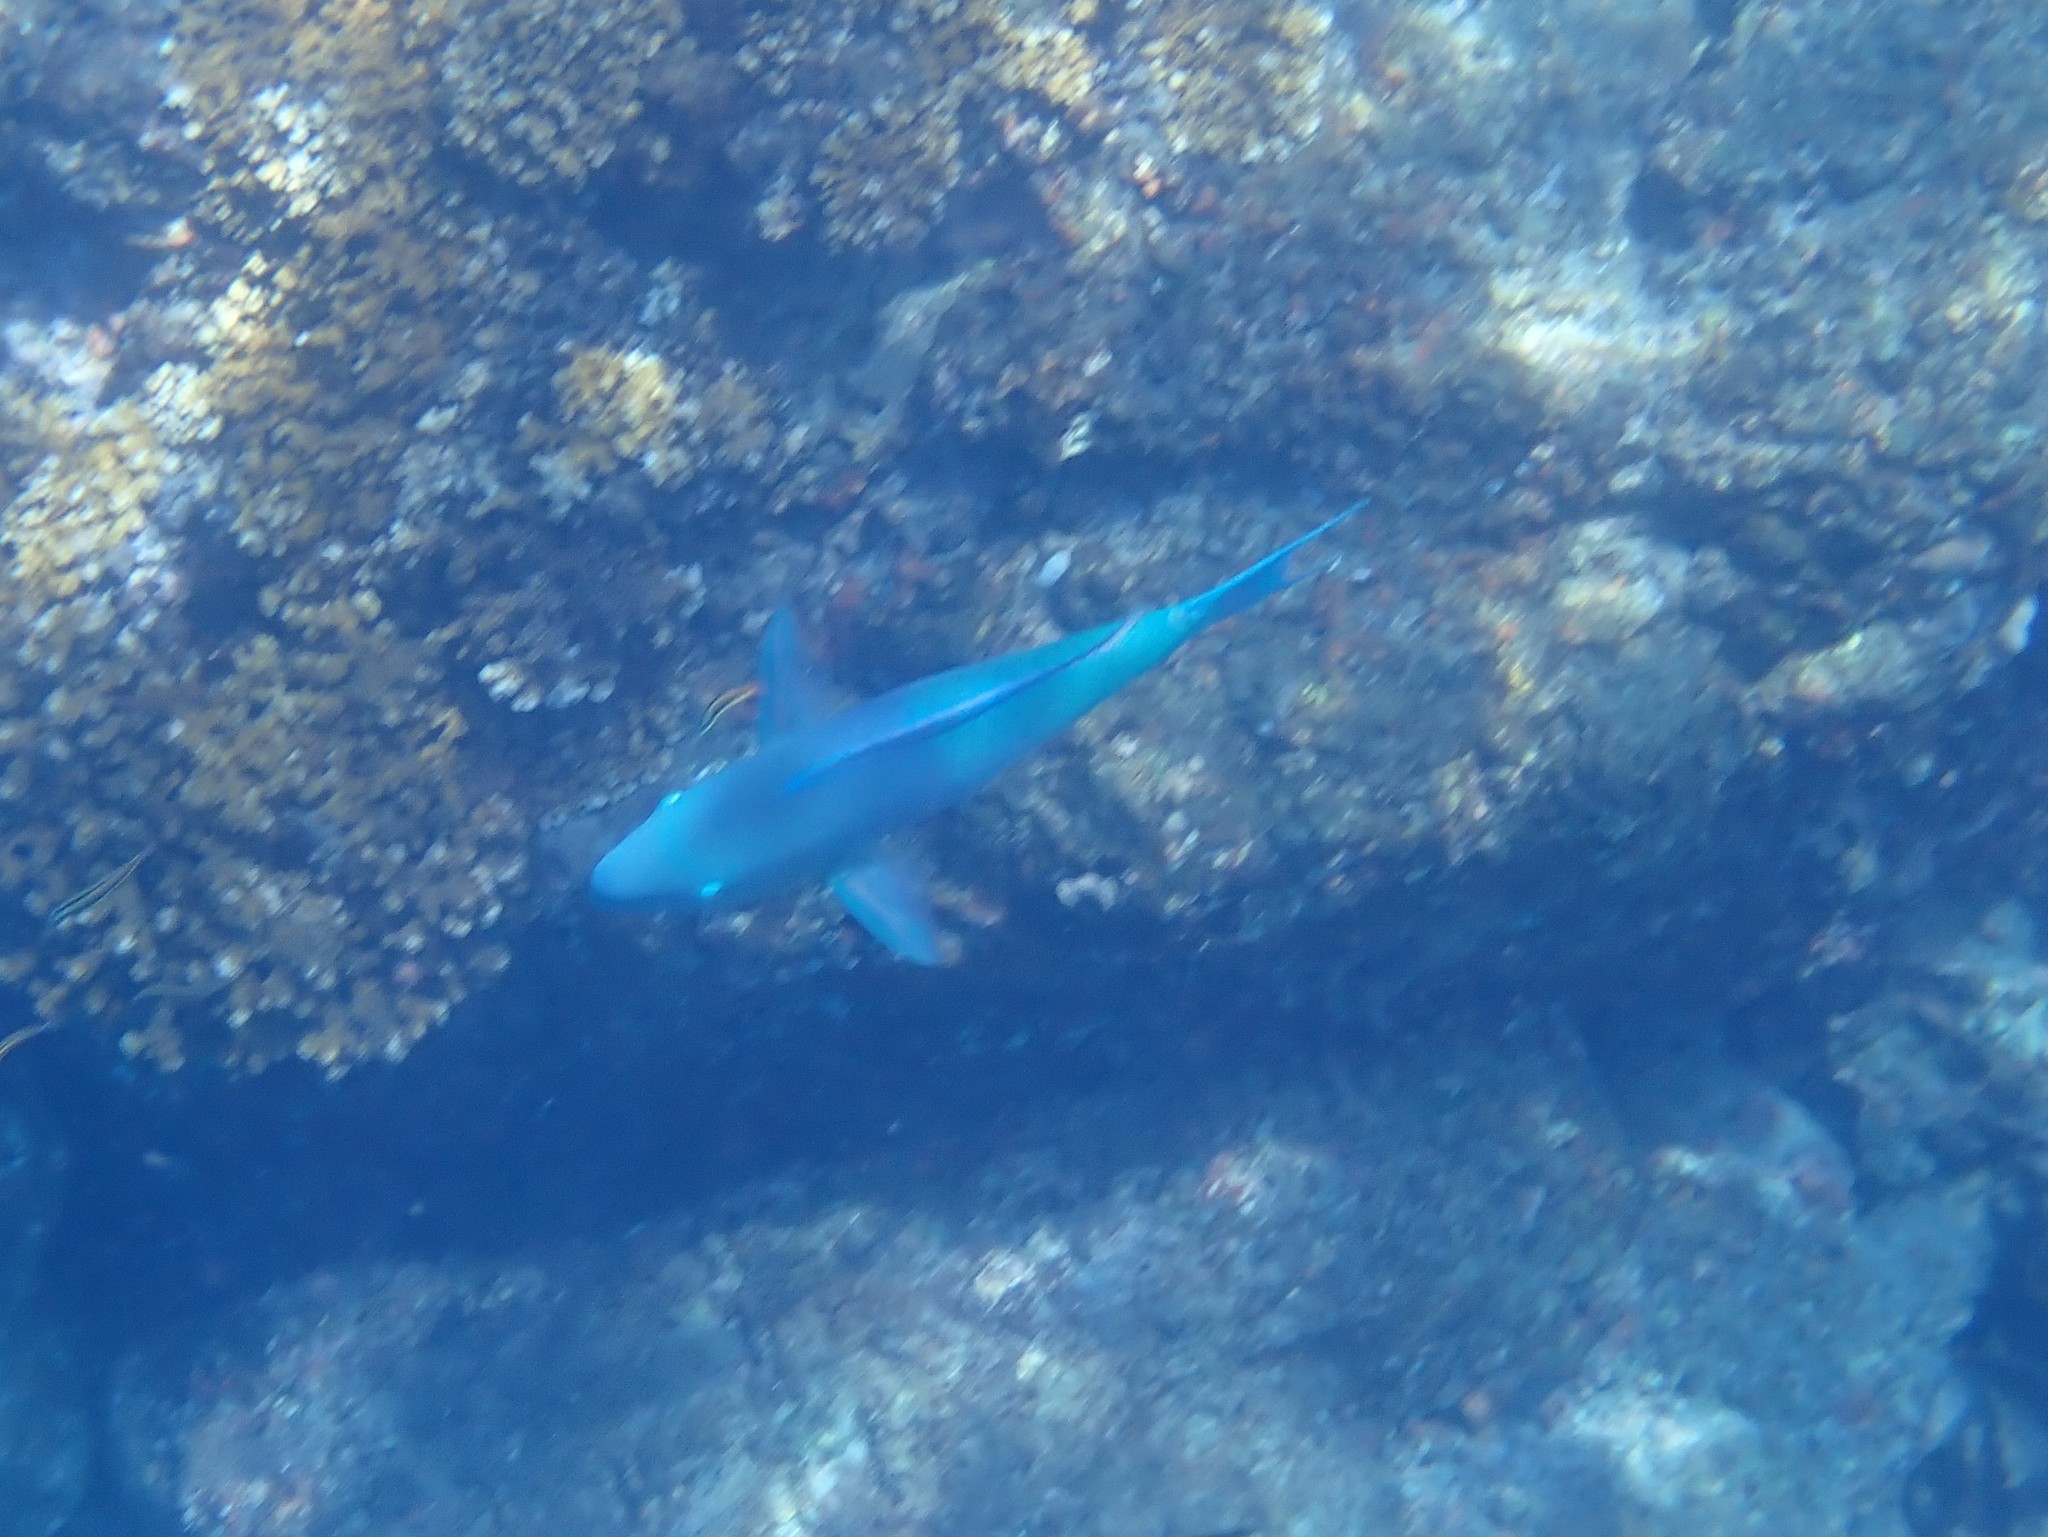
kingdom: Animalia
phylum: Chordata
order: Perciformes
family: Scaridae
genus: Scarus
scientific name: Scarus rubroviolaceus
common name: Ember parrotfish
